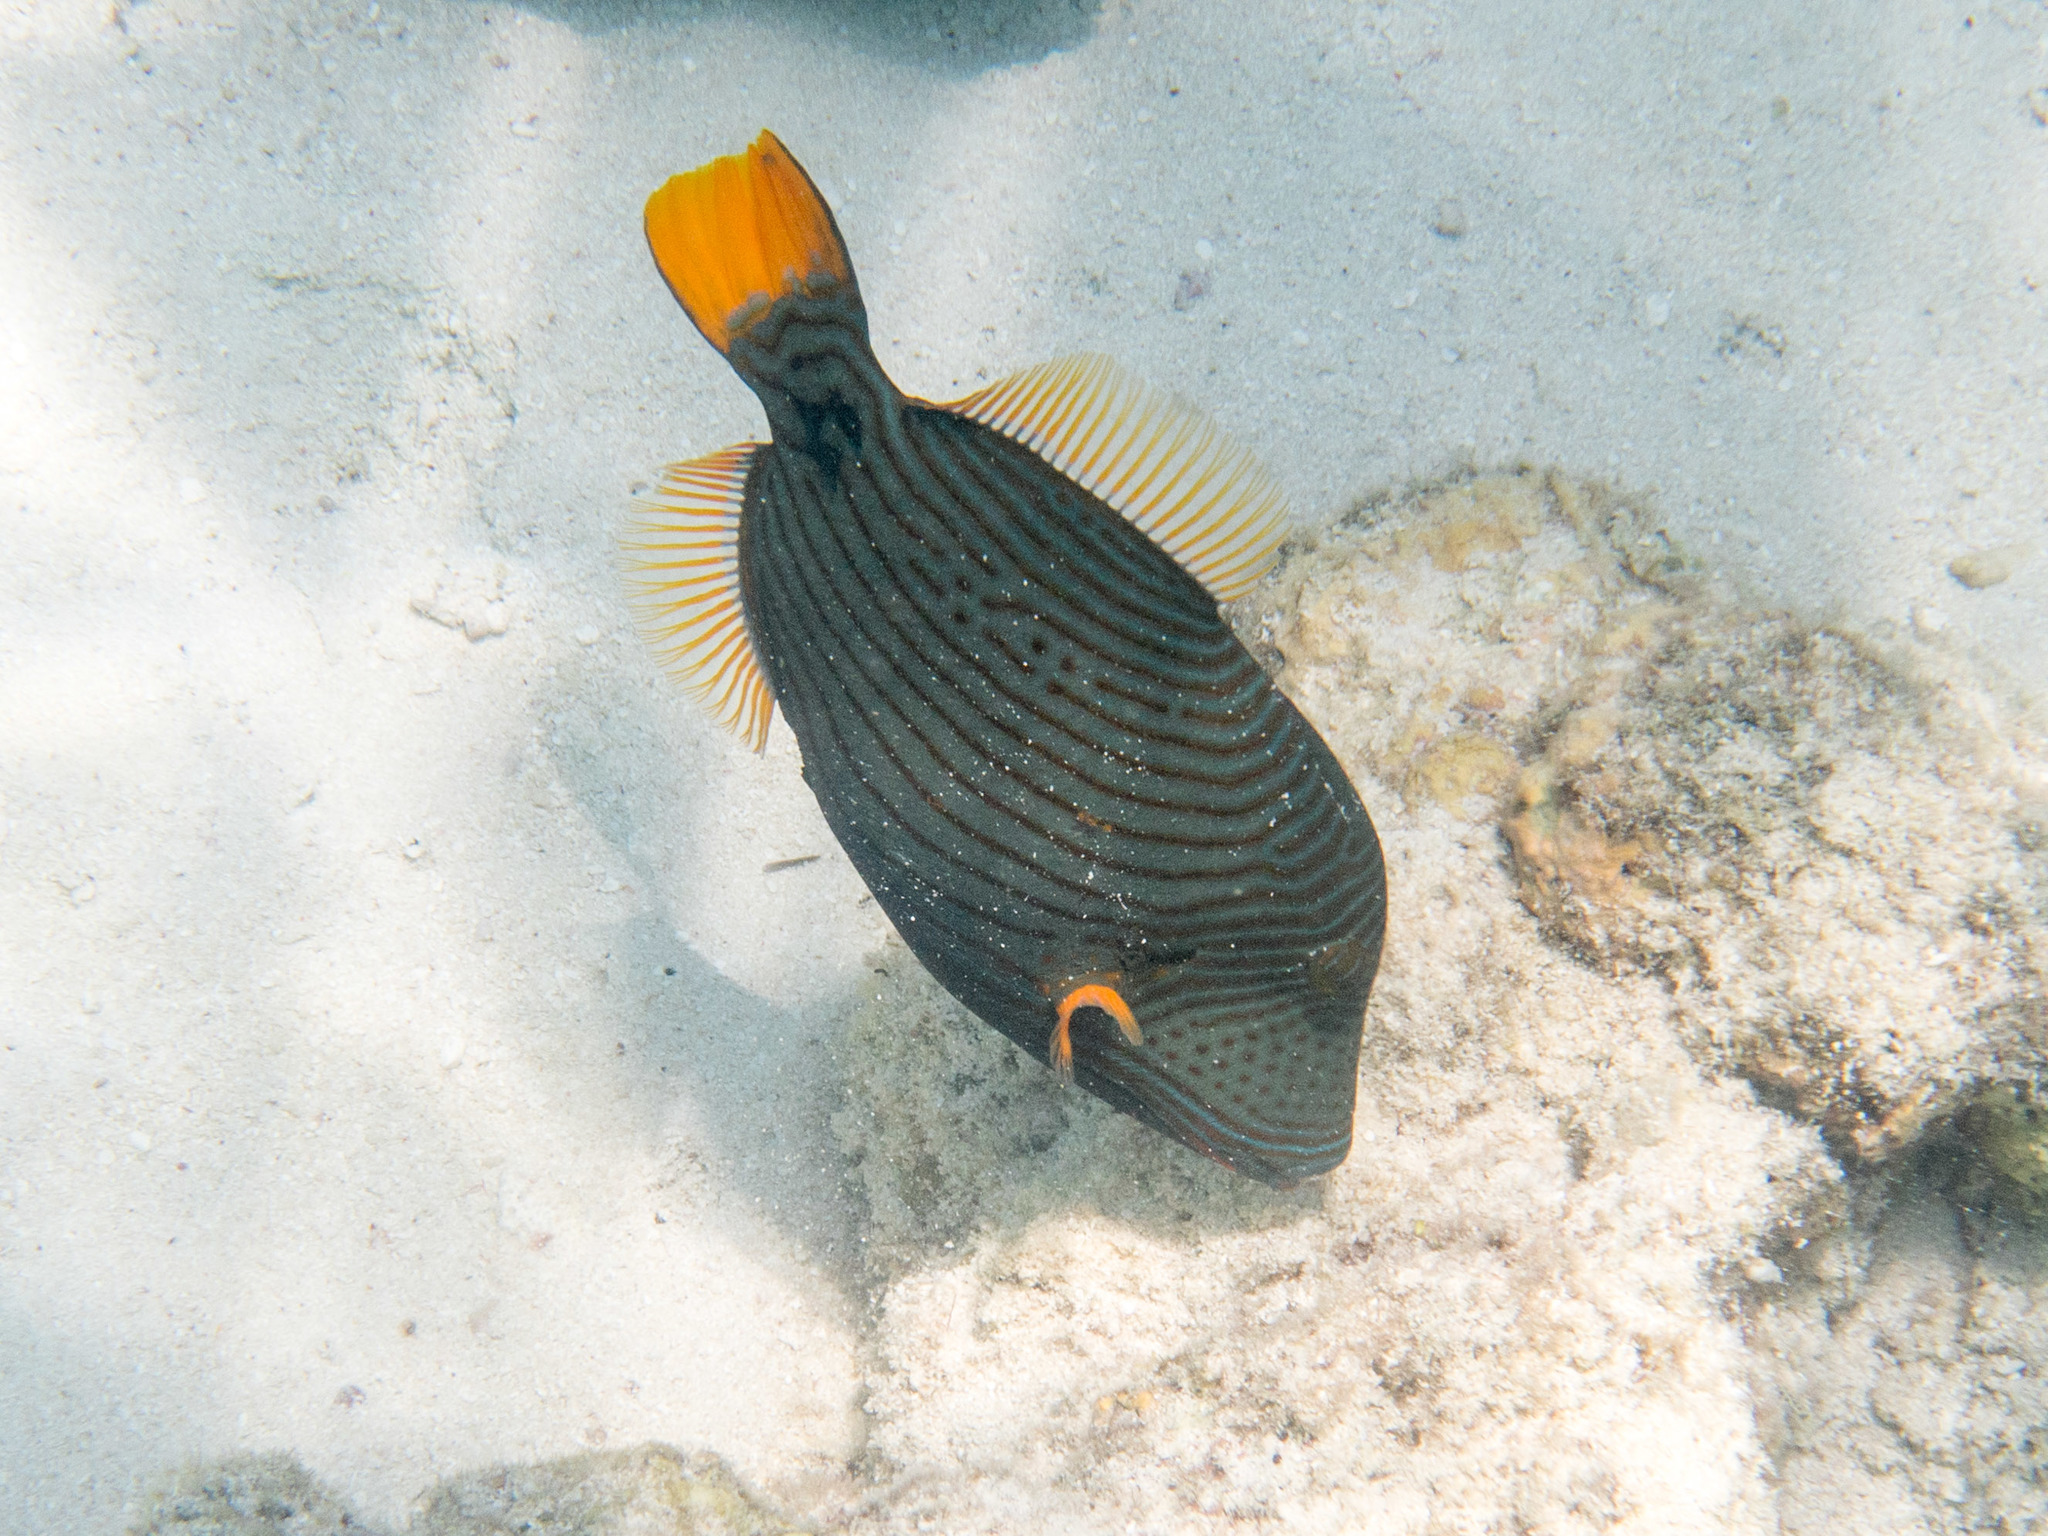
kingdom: Animalia
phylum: Chordata
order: Tetraodontiformes
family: Balistidae
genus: Balistapus
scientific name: Balistapus undulatus
